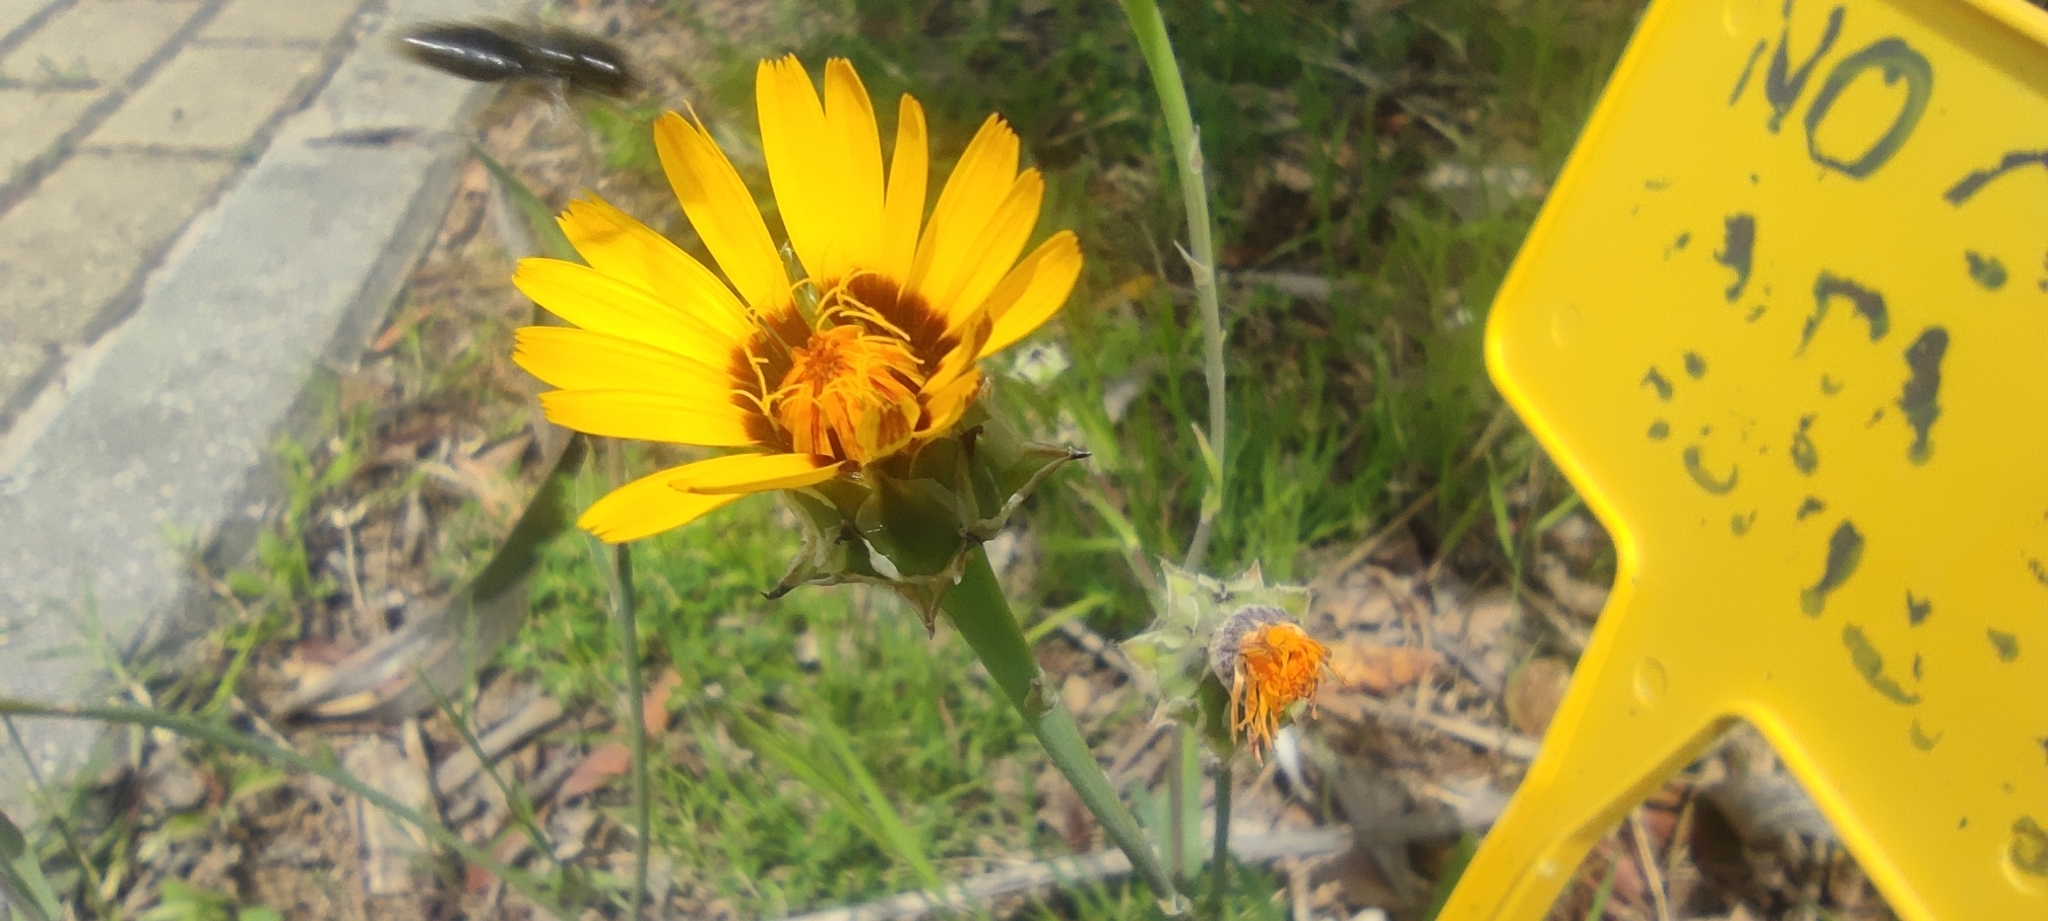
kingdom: Plantae
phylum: Tracheophyta
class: Magnoliopsida
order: Asterales
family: Asteraceae
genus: Reichardia
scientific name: Reichardia tingitana
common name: Reichardia
